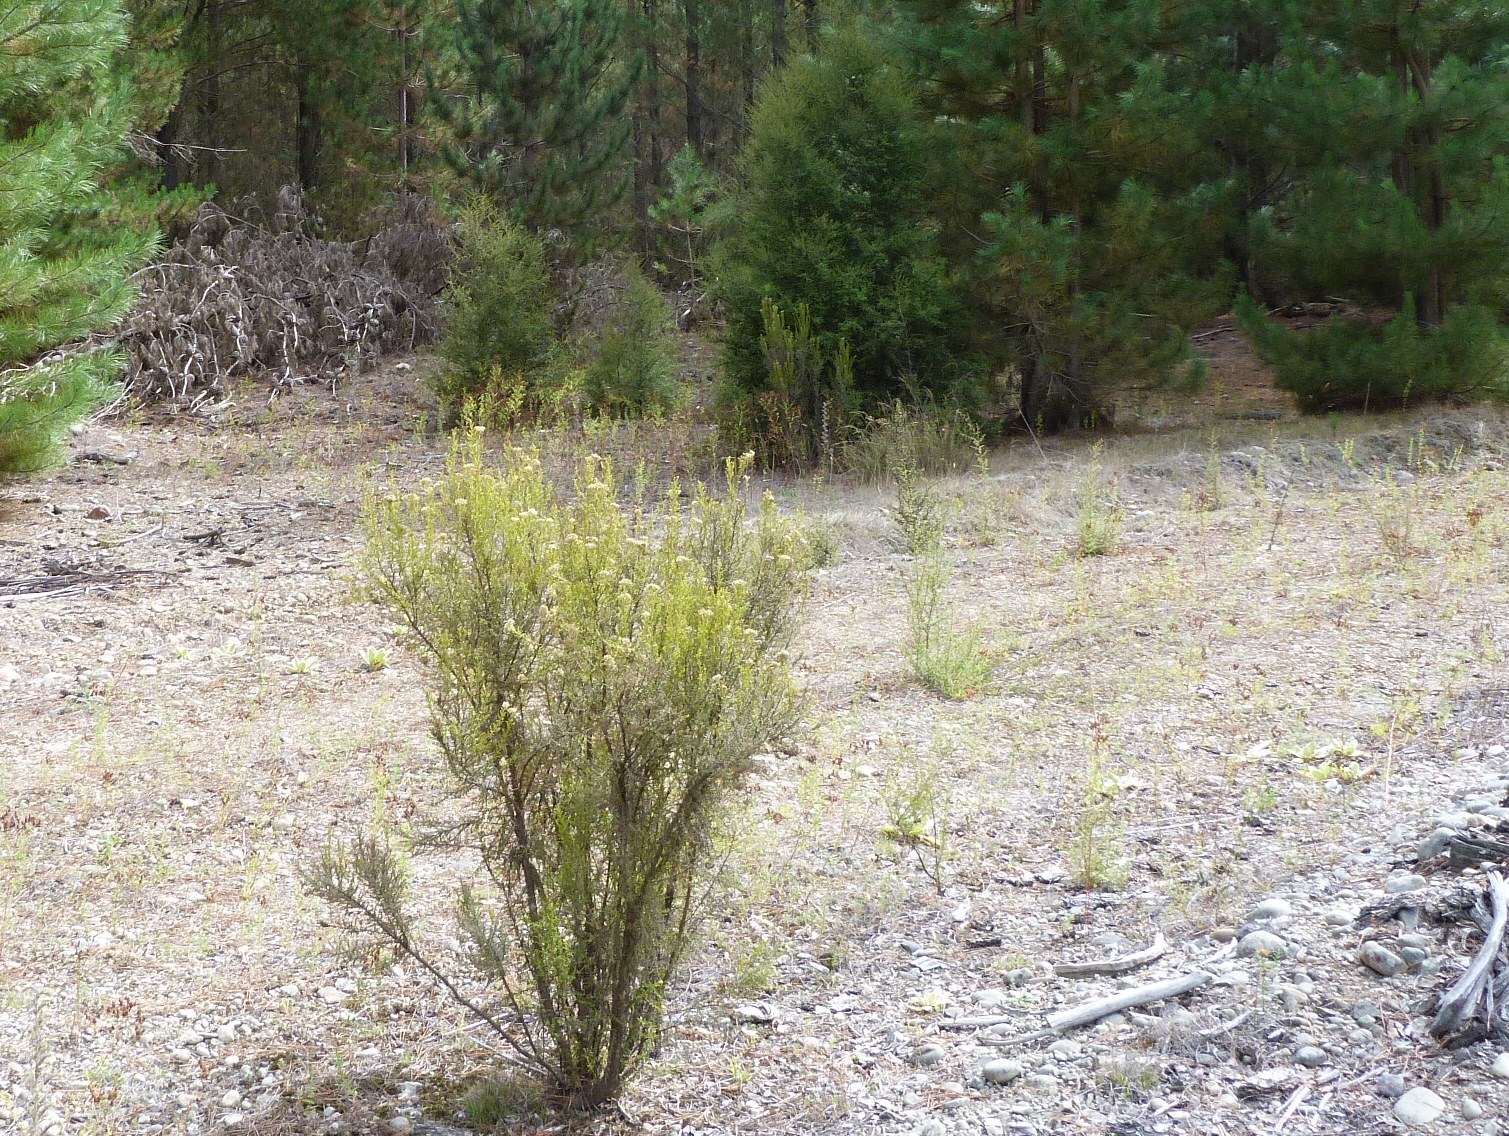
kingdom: Plantae
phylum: Tracheophyta
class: Magnoliopsida
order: Asterales
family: Asteraceae
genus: Ozothamnus
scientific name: Ozothamnus leptophyllus
